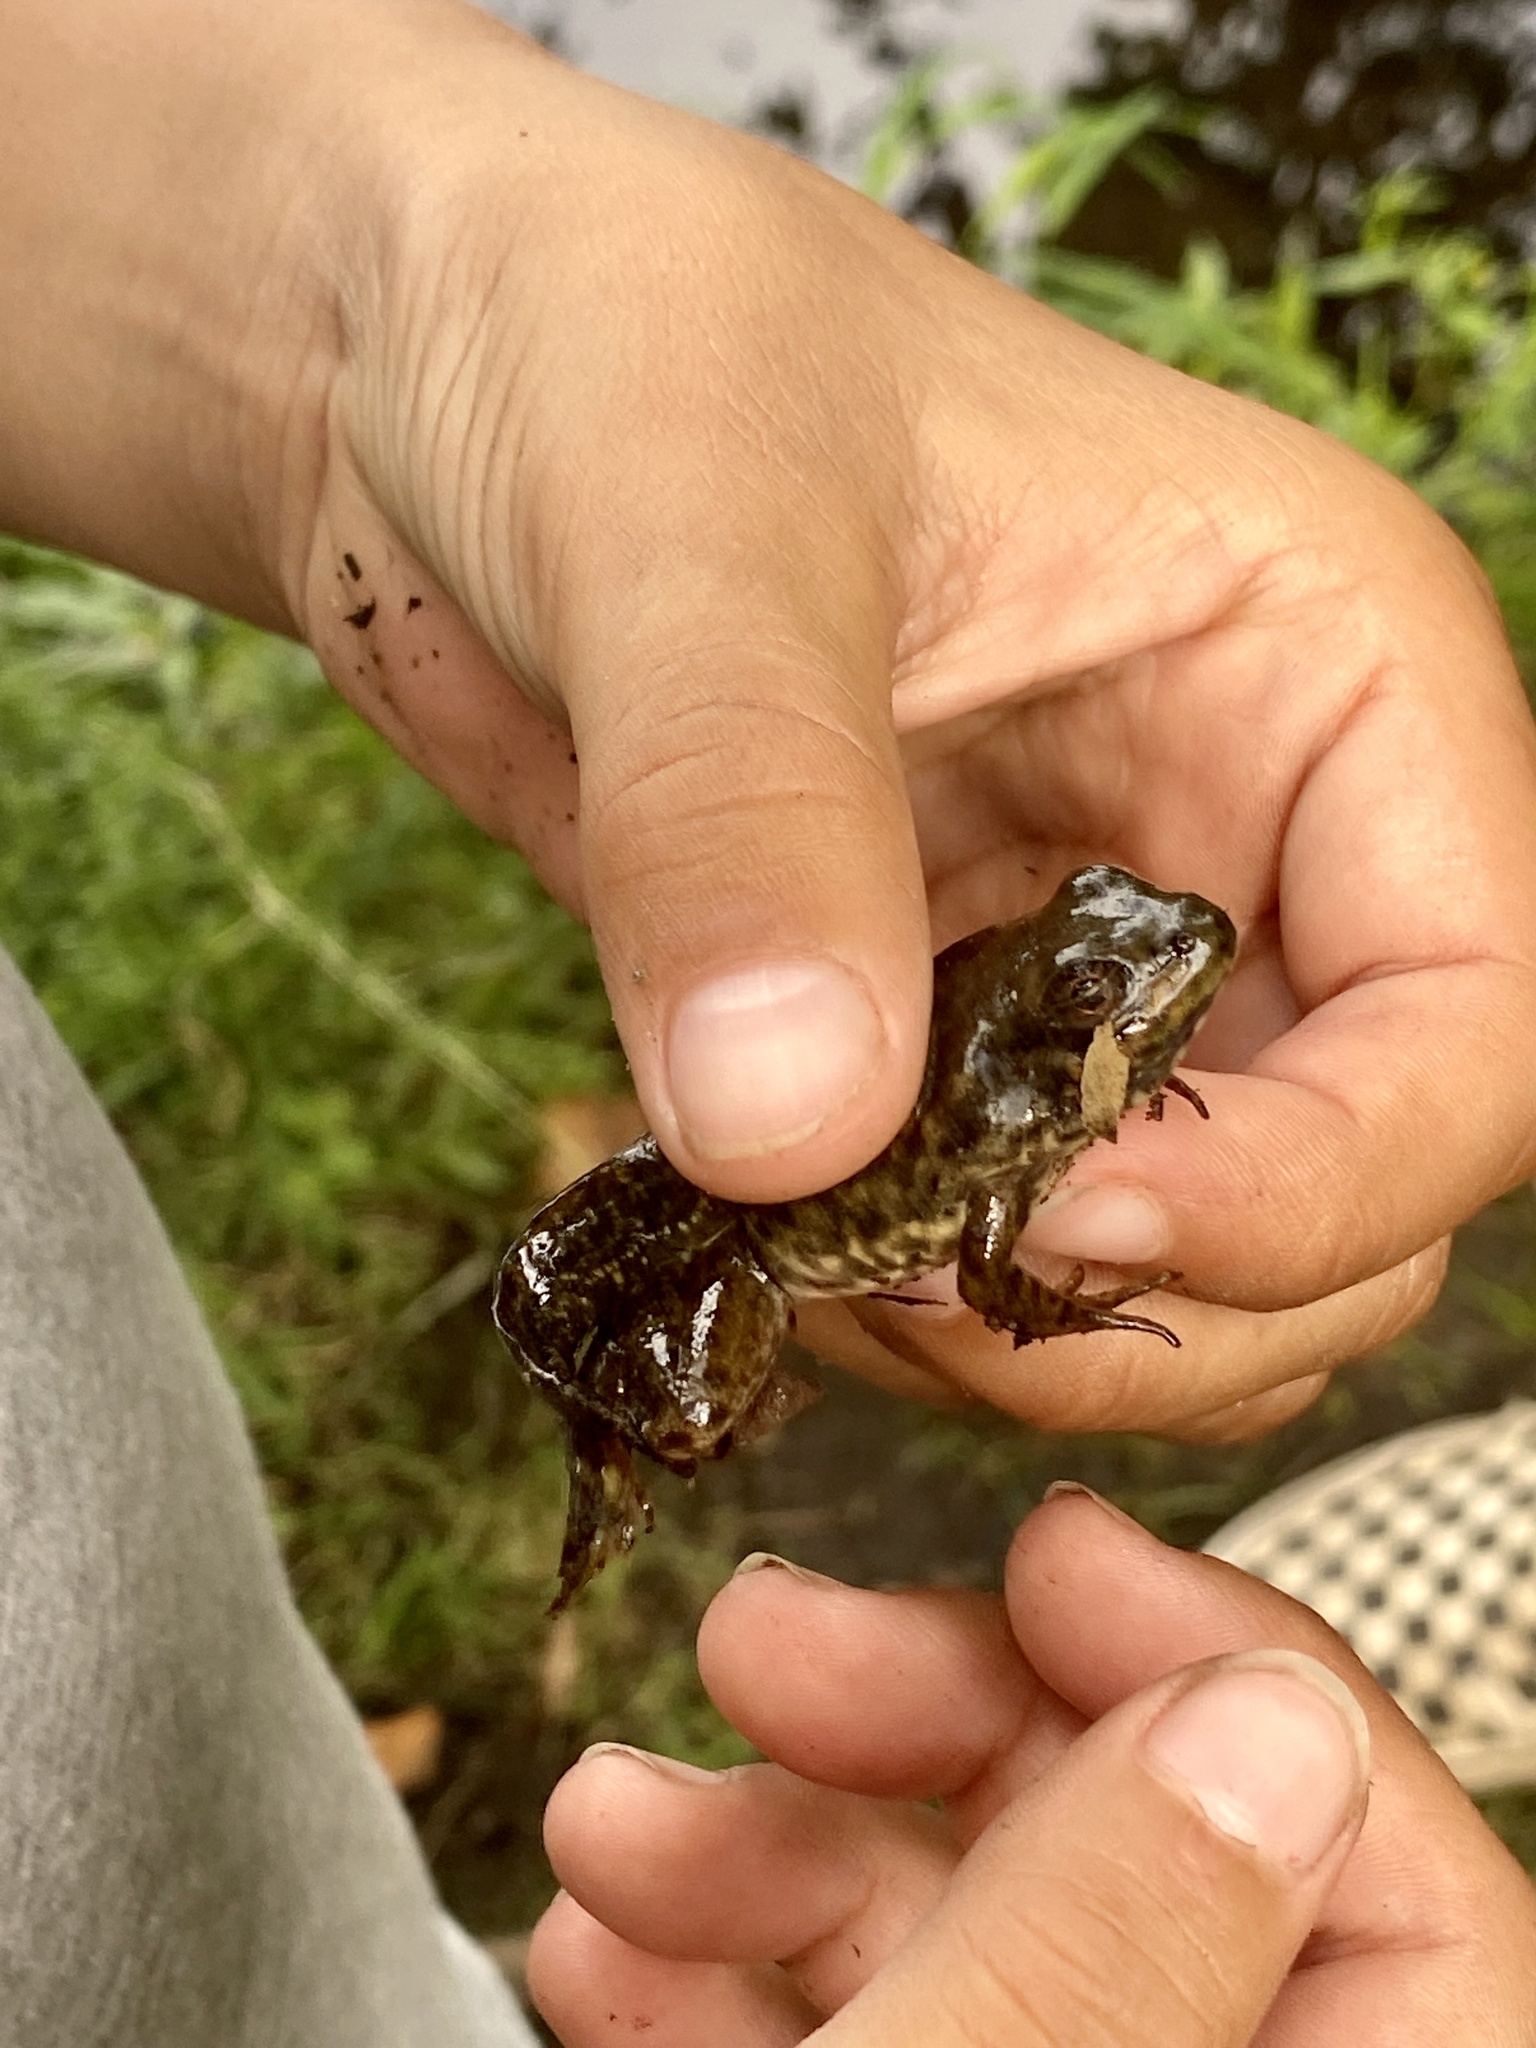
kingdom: Animalia
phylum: Chordata
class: Amphibia
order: Anura
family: Ranidae
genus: Lithobates
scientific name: Lithobates catesbeianus
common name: American bullfrog
